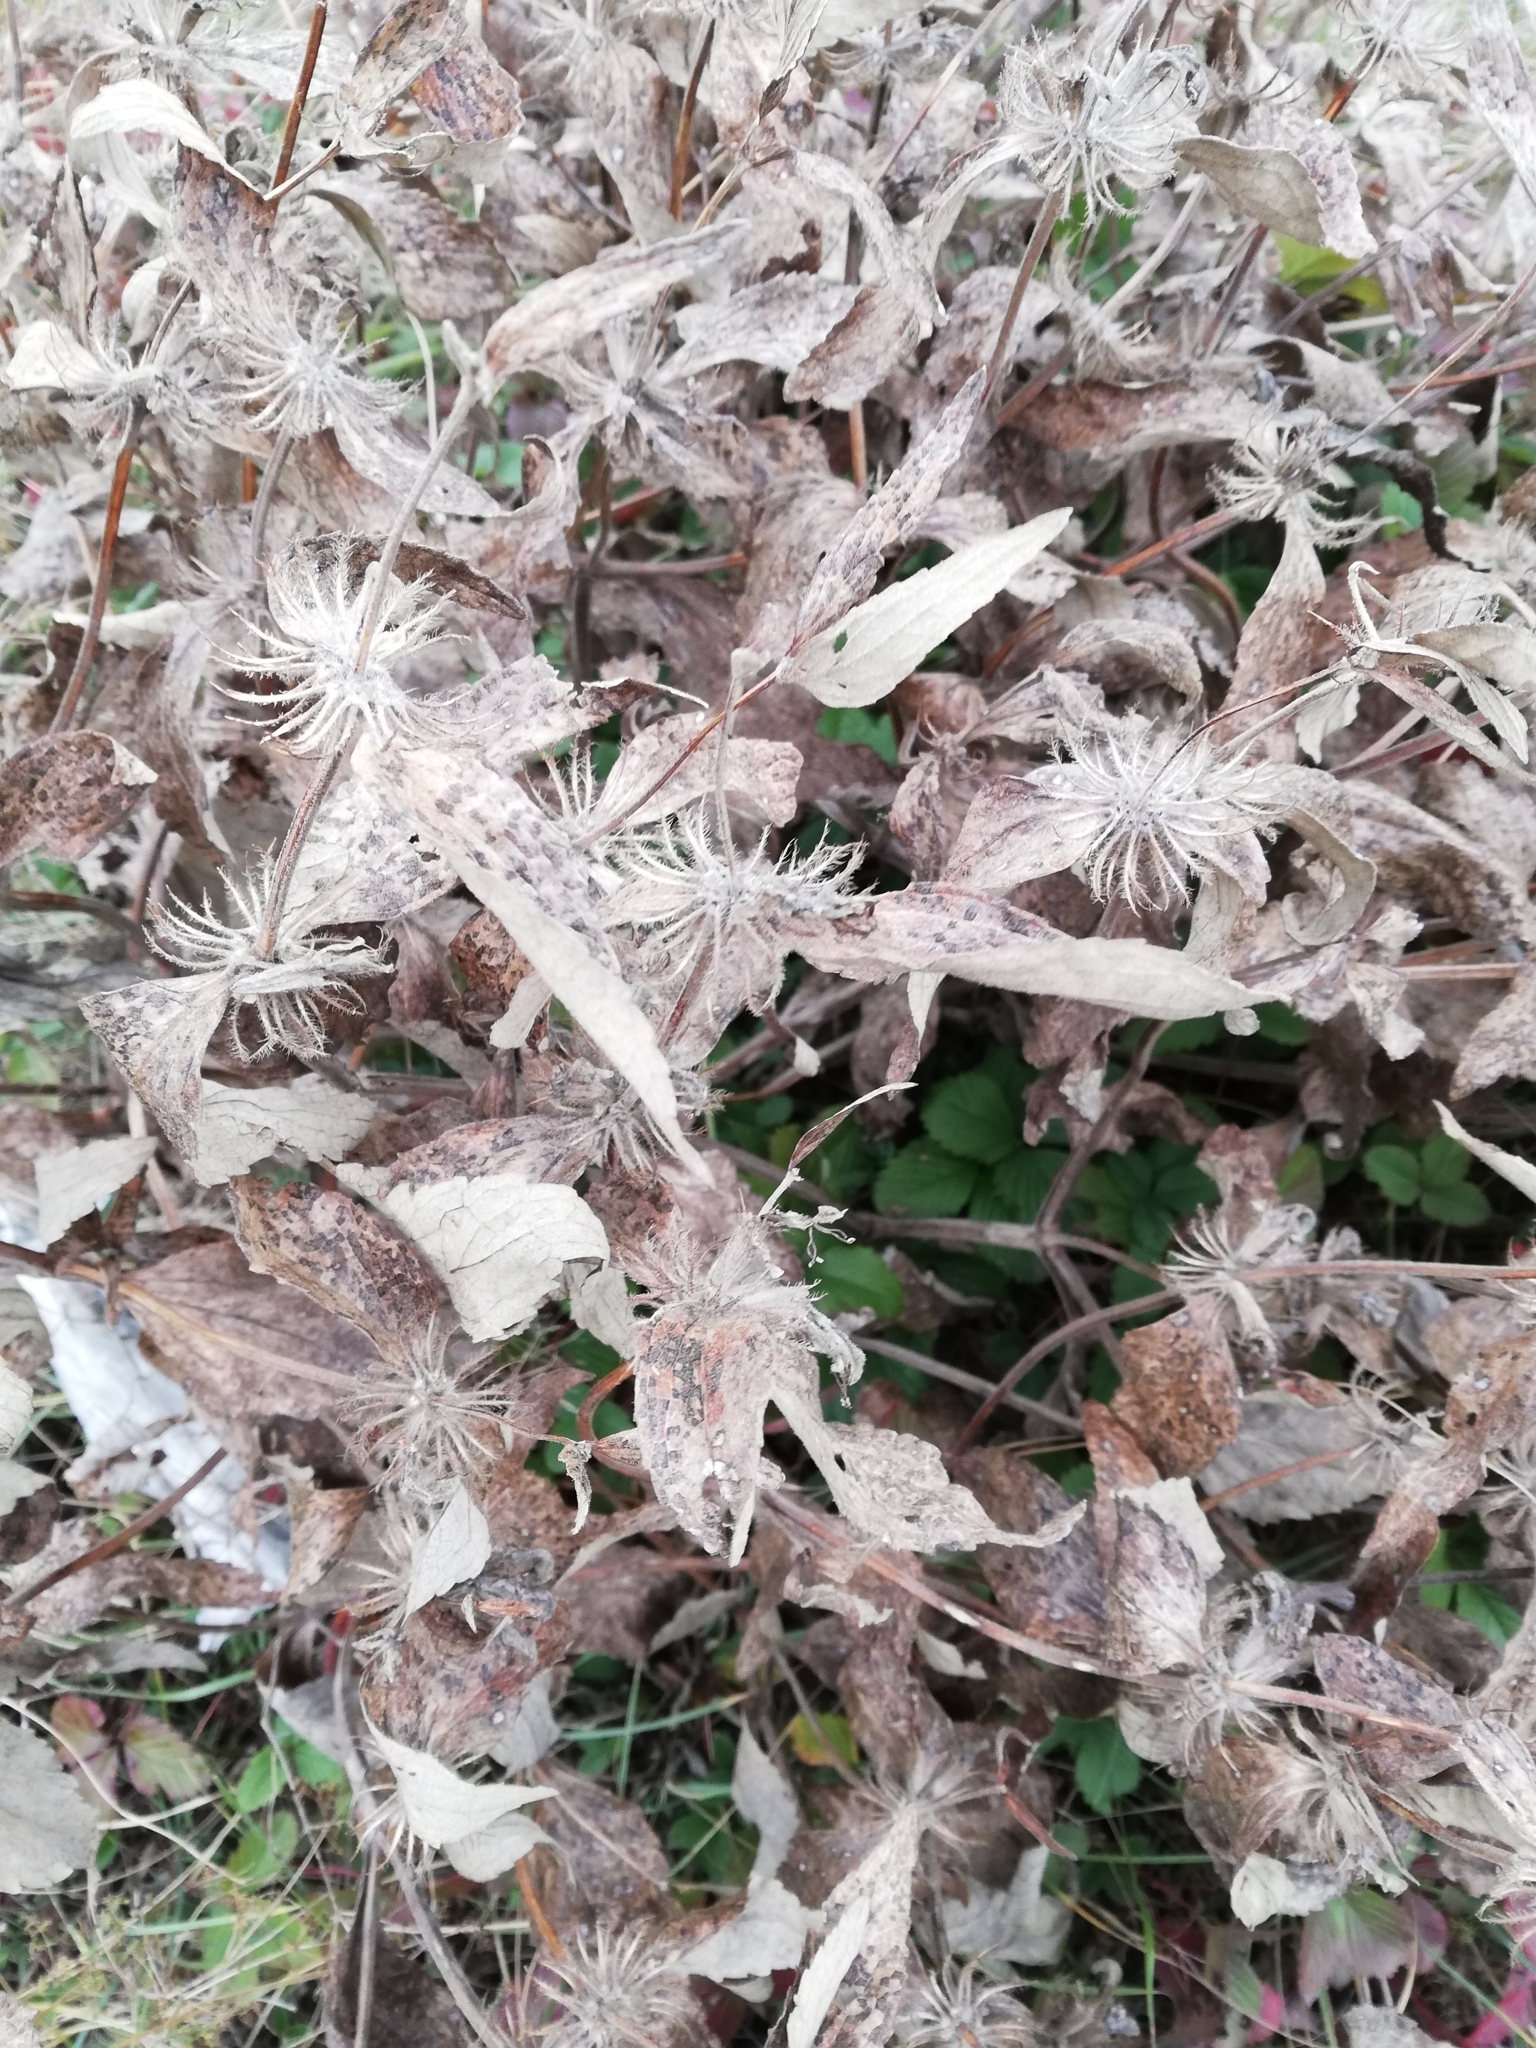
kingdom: Plantae
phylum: Tracheophyta
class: Magnoliopsida
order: Lamiales
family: Lamiaceae
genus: Phlomis
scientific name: Phlomis herba-venti
